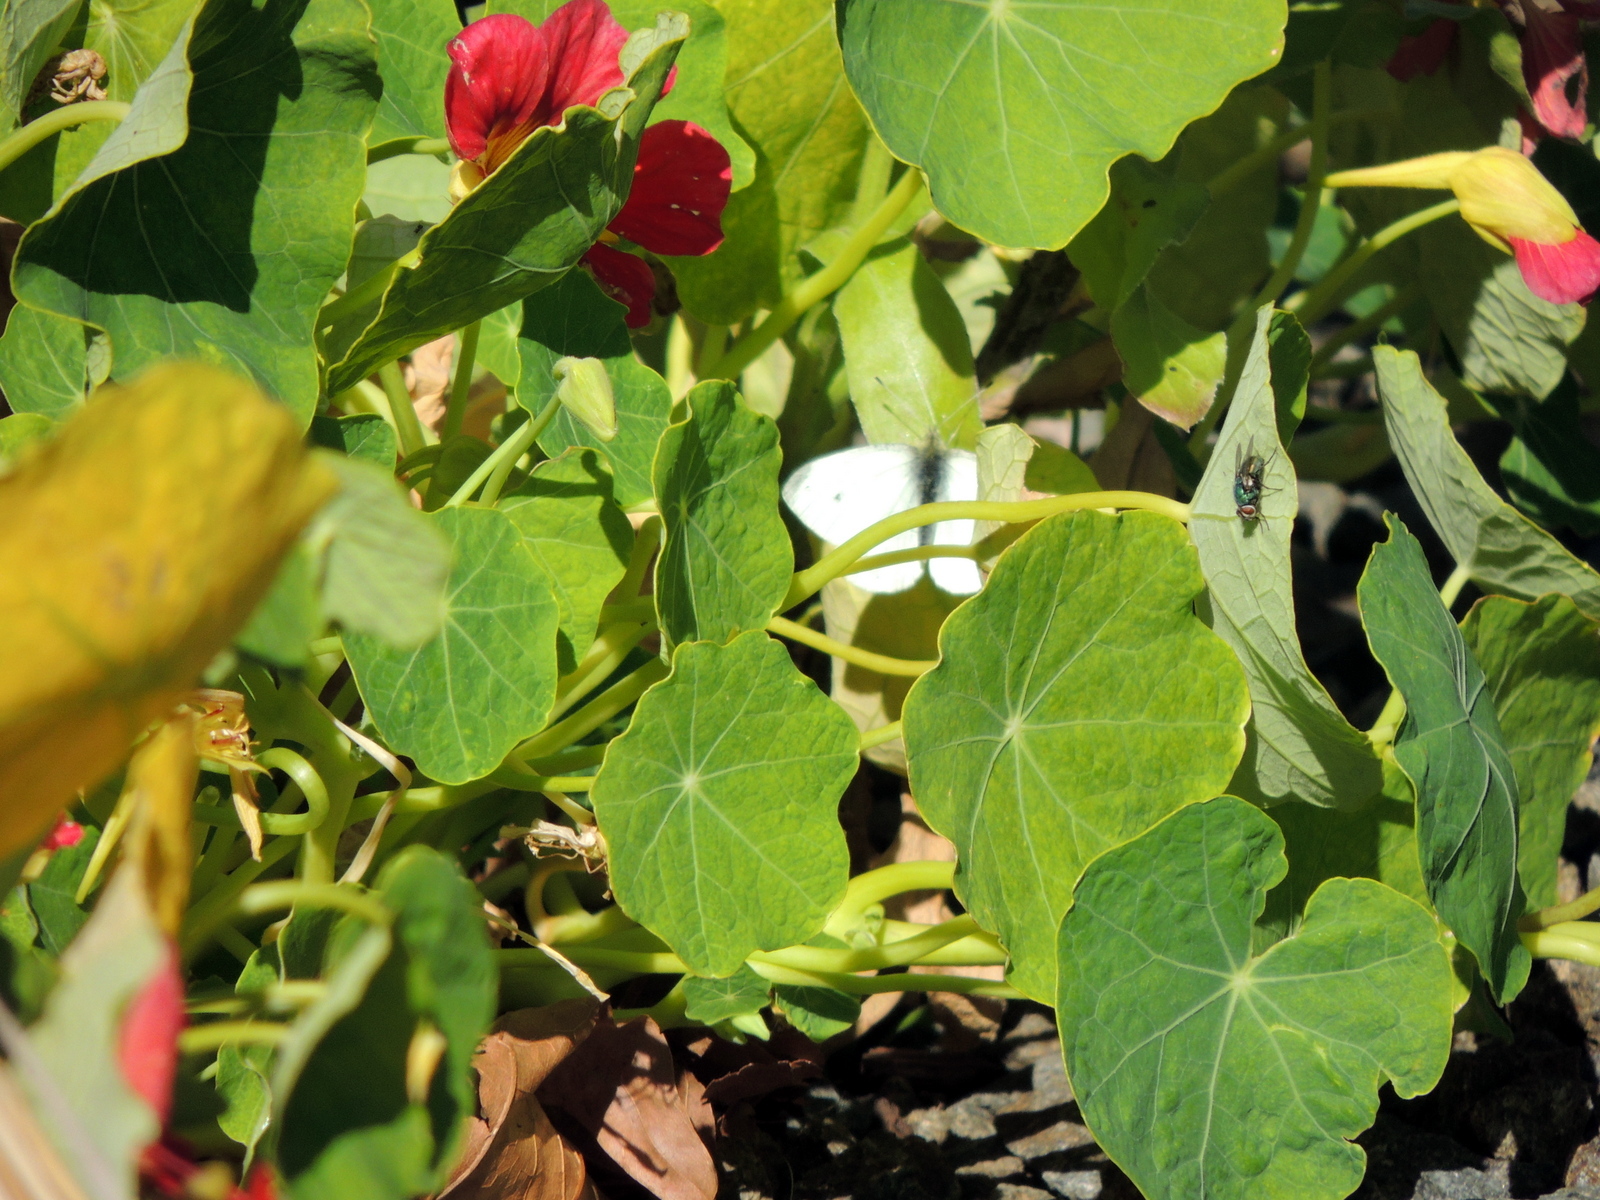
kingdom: Plantae
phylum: Tracheophyta
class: Magnoliopsida
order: Brassicales
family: Tropaeolaceae
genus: Tropaeolum
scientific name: Tropaeolum majus
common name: Nasturtium
